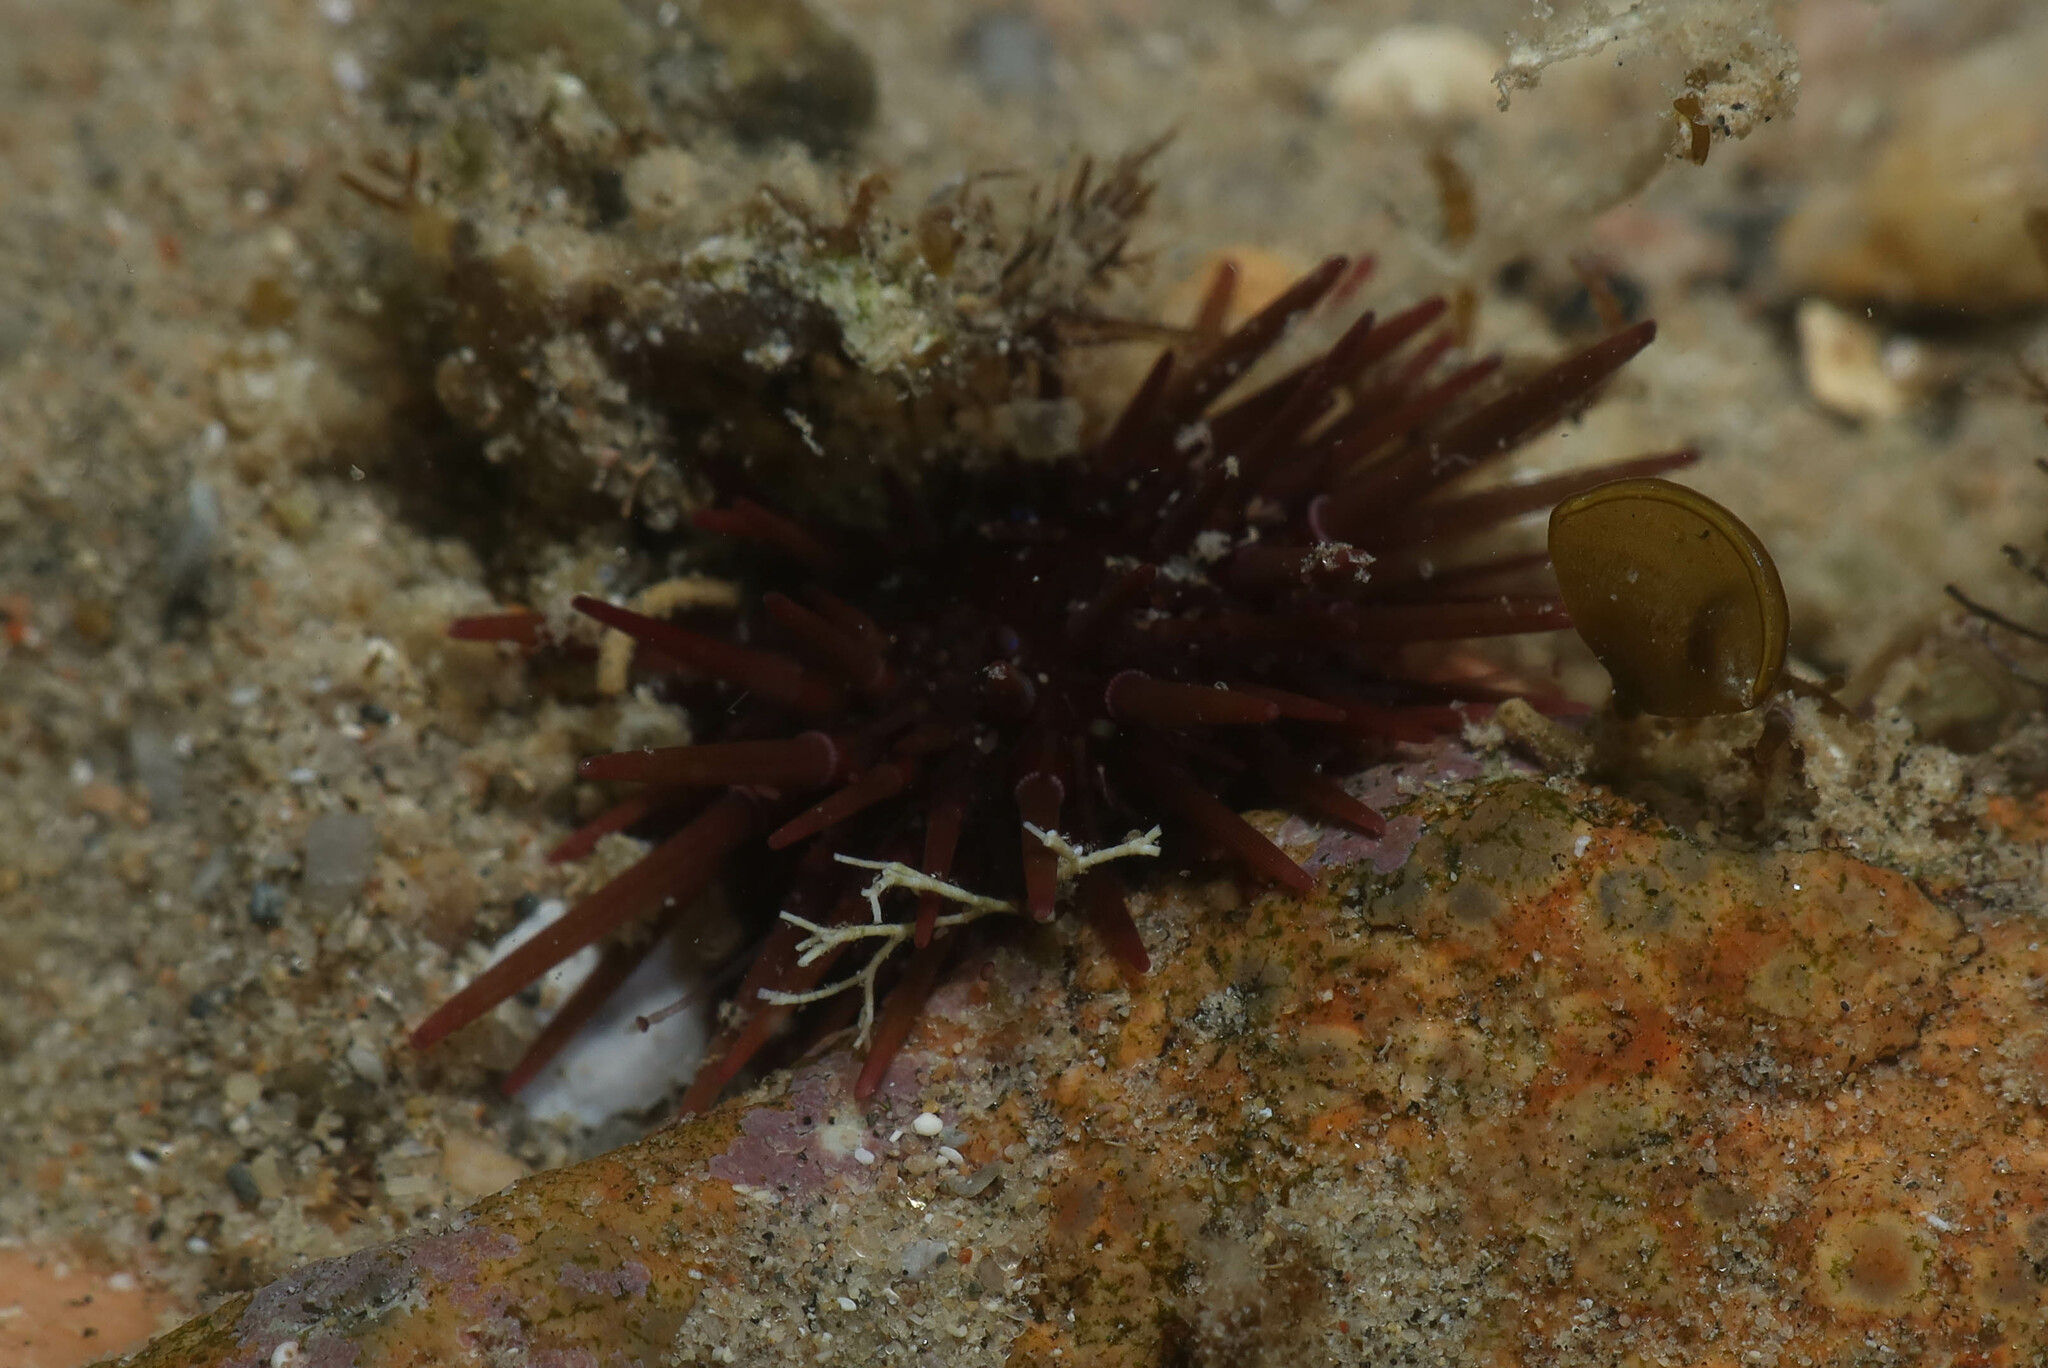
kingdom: Animalia
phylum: Echinodermata
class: Echinoidea
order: Camarodonta
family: Echinometridae
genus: Echinometra
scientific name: Echinometra mathaei
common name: Rock-boring urchin
